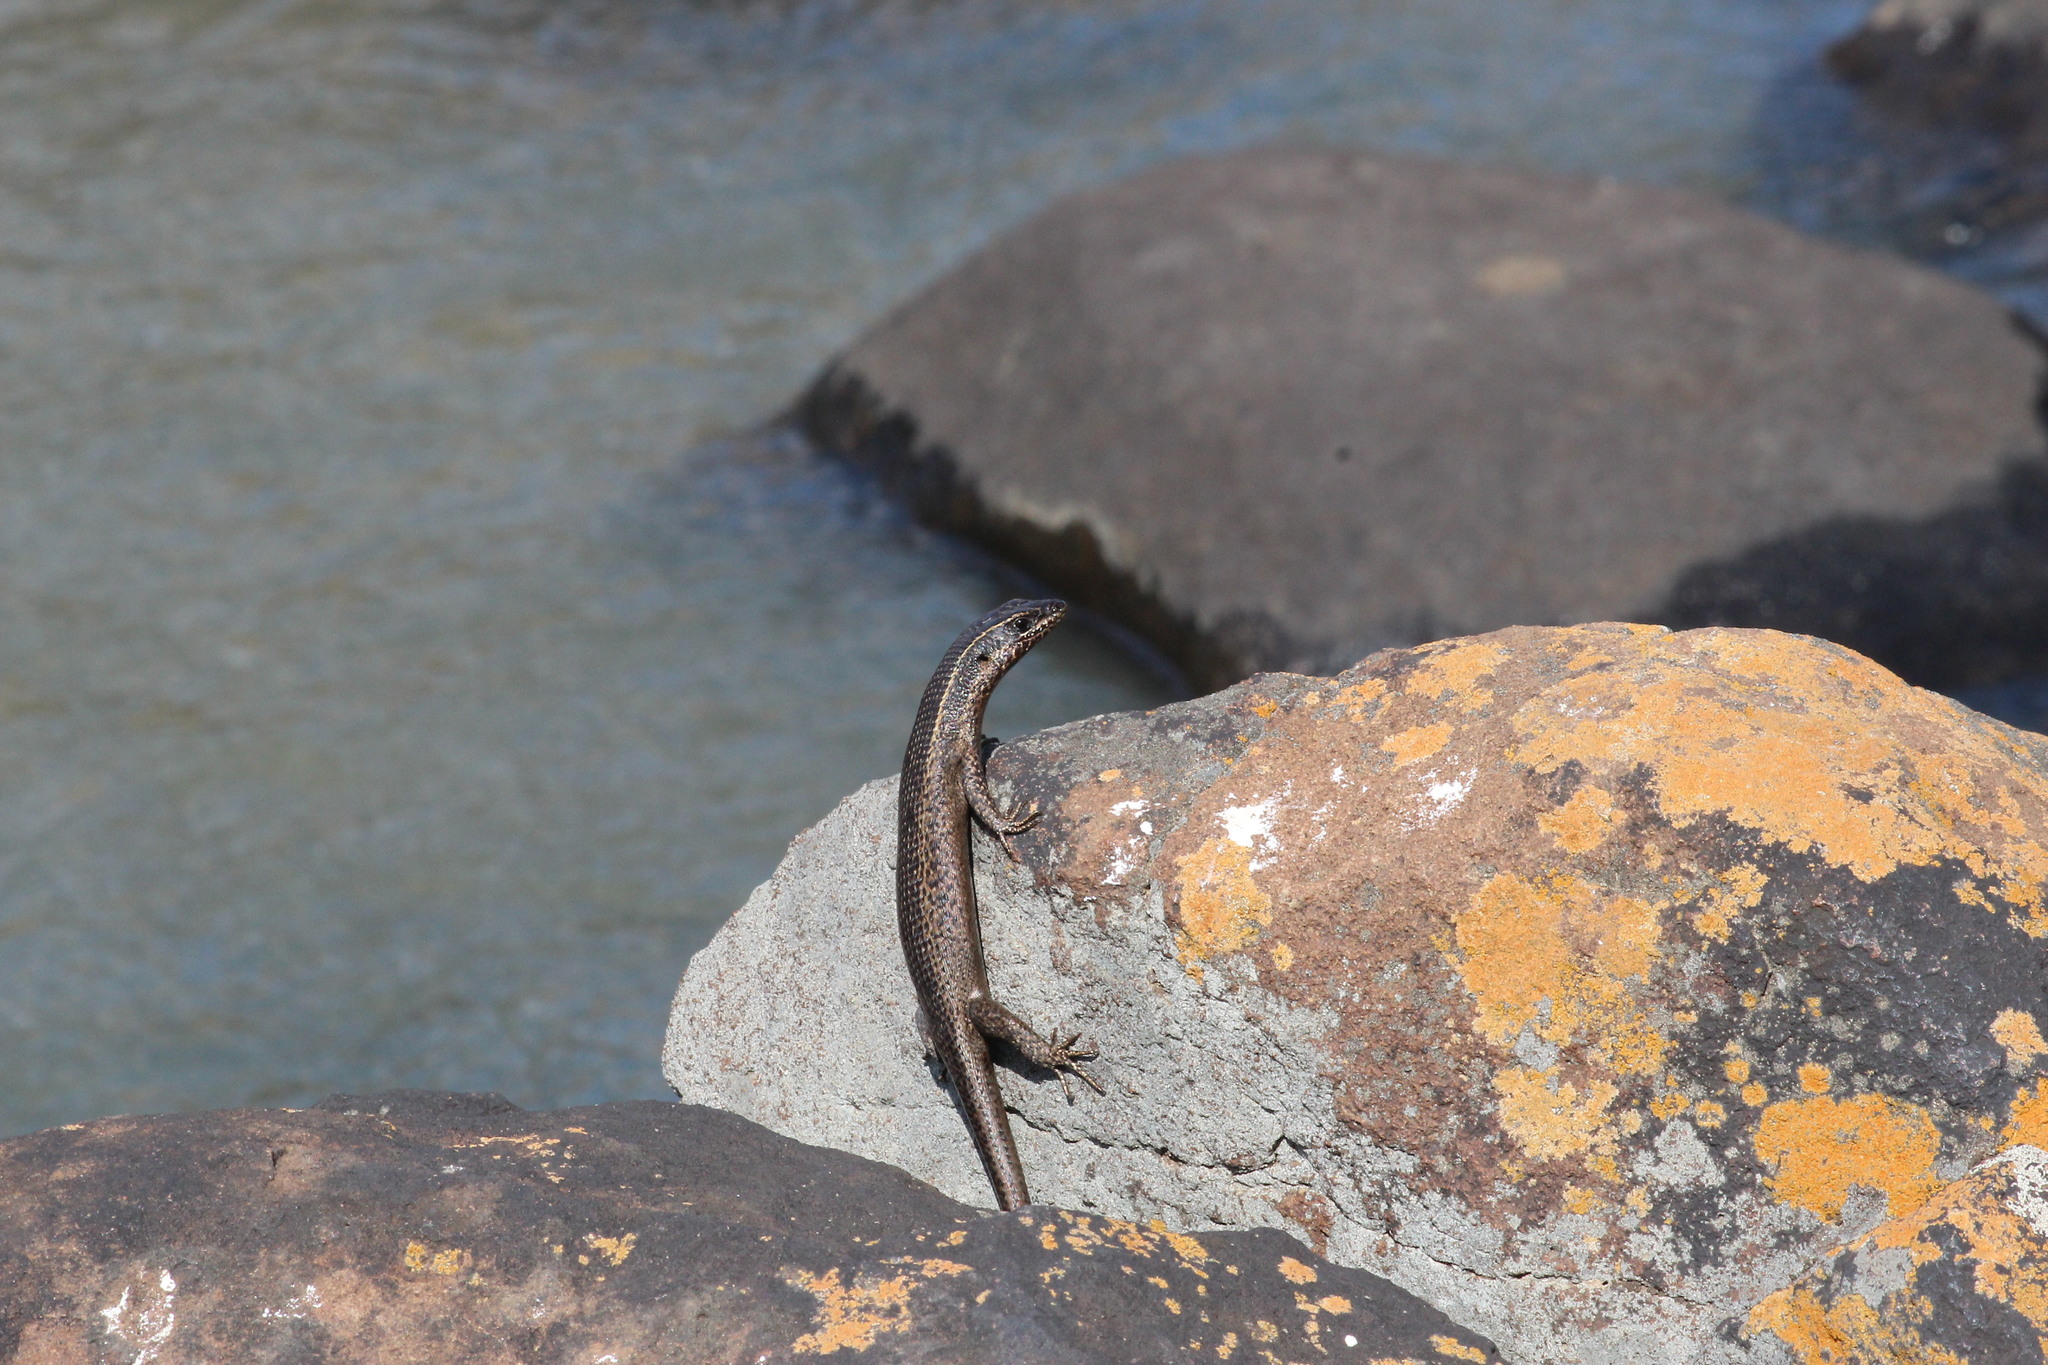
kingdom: Animalia
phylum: Chordata
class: Squamata
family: Scincidae
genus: Trachylepis
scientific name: Trachylepis punctatissima
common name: Montane speckled skink
